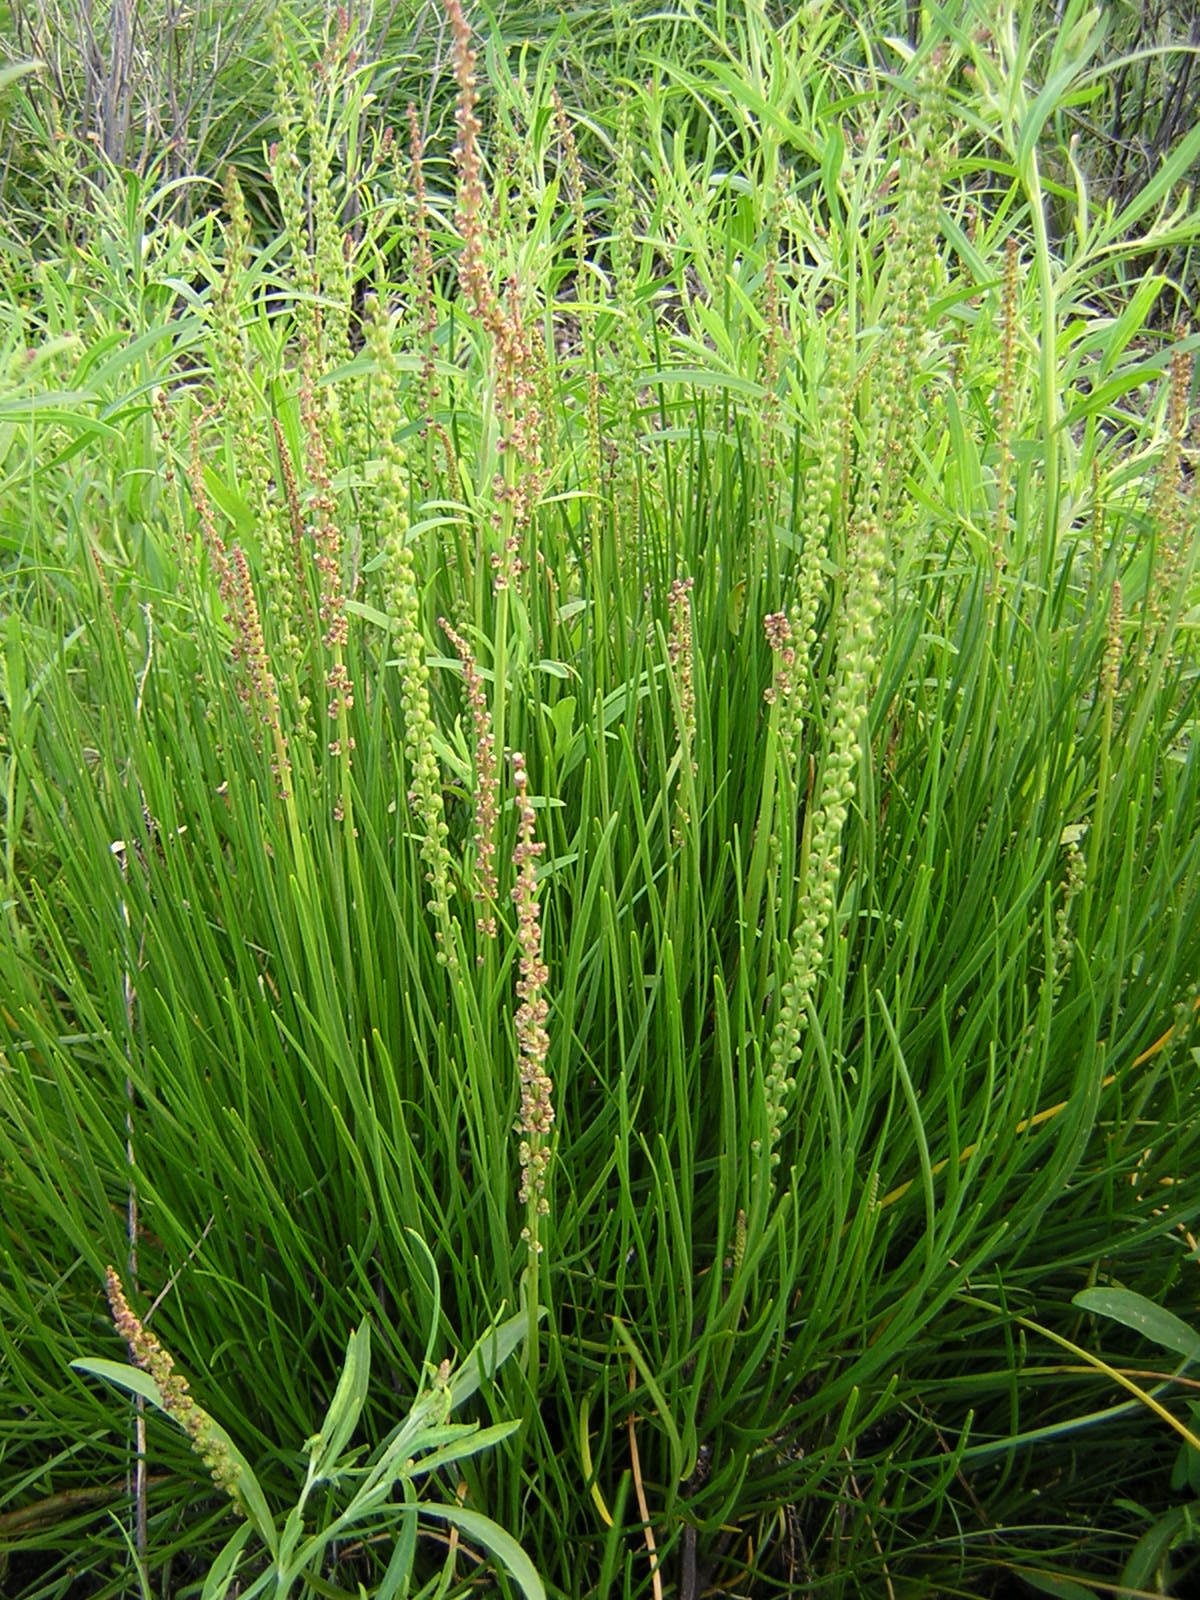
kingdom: Plantae
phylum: Tracheophyta
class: Liliopsida
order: Alismatales
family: Juncaginaceae
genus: Triglochin
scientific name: Triglochin maritima
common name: Sea arrowgrass
